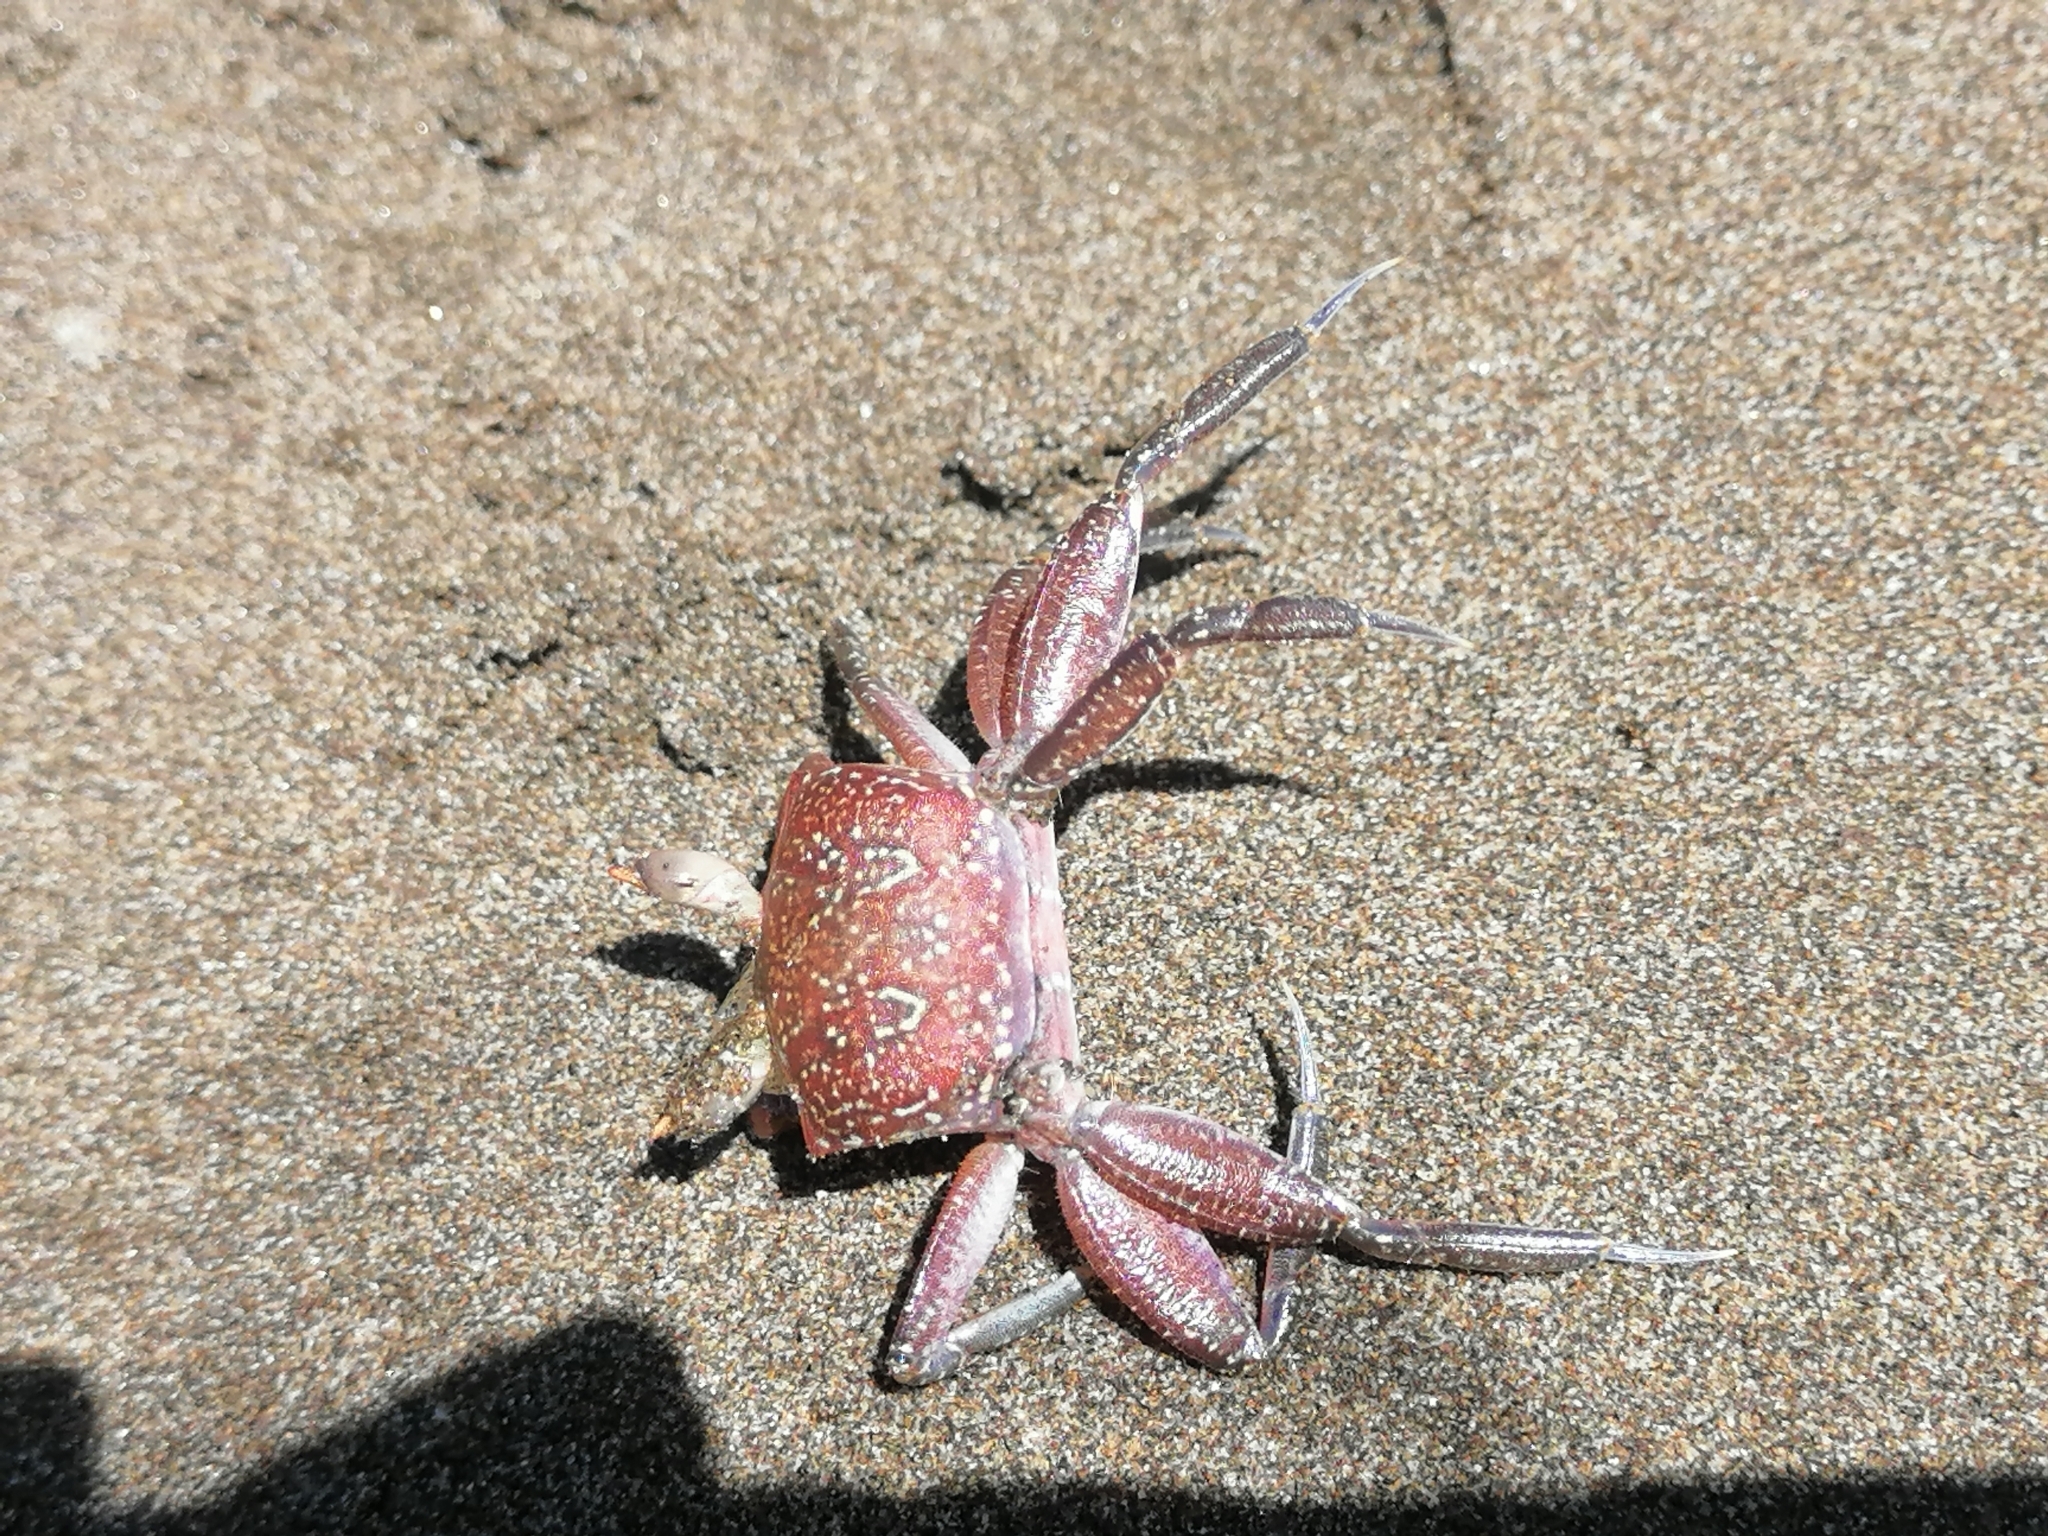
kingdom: Animalia
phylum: Arthropoda
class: Malacostraca
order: Decapoda
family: Ocypodidae
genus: Ocypode
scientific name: Ocypode gaudichaudii
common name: Pacific ghost crab
